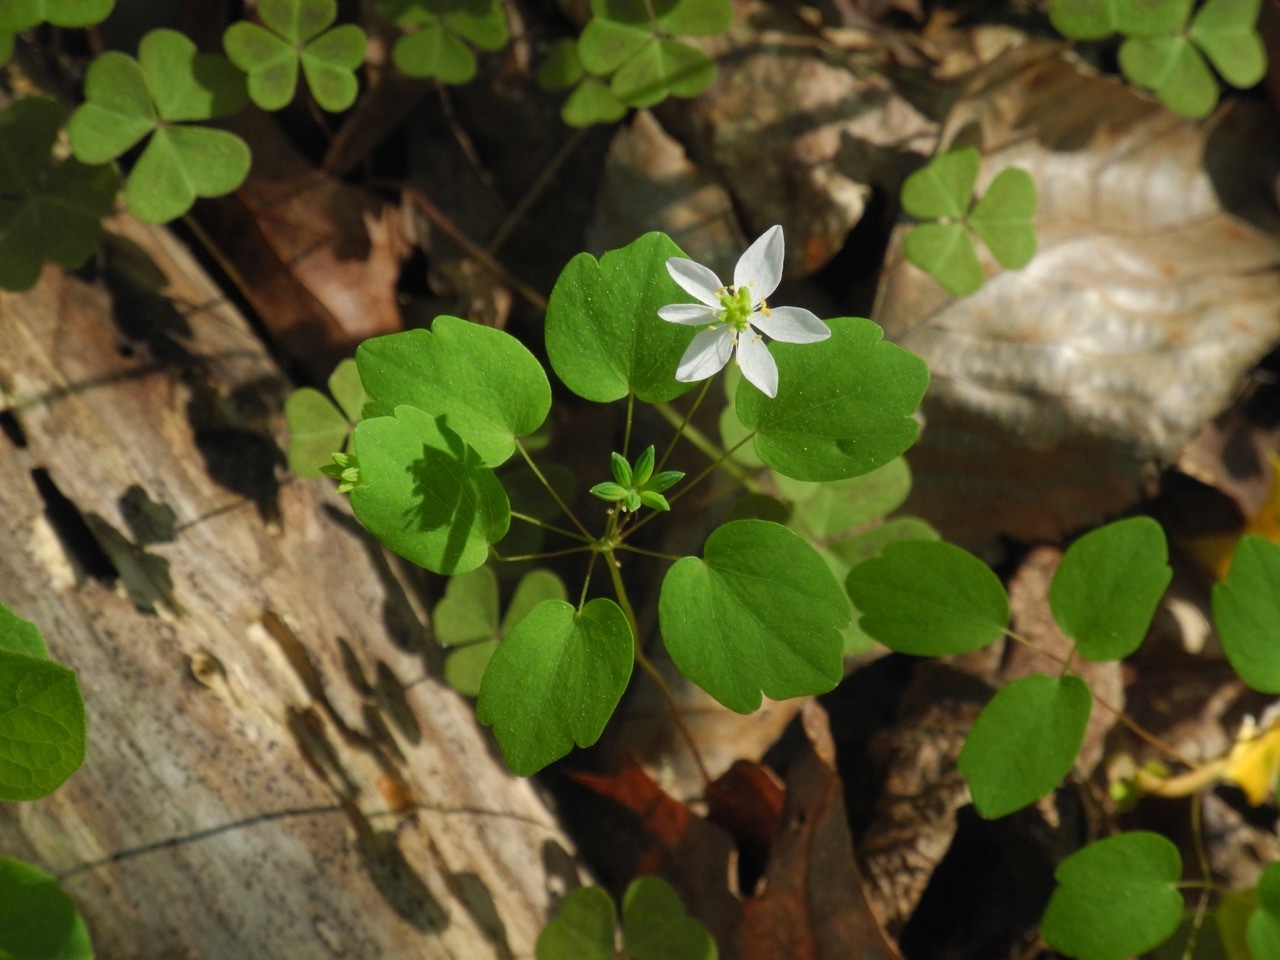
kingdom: Plantae
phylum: Tracheophyta
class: Magnoliopsida
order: Ranunculales
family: Ranunculaceae
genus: Thalictrum
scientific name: Thalictrum thalictroides
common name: Rue-anemone
